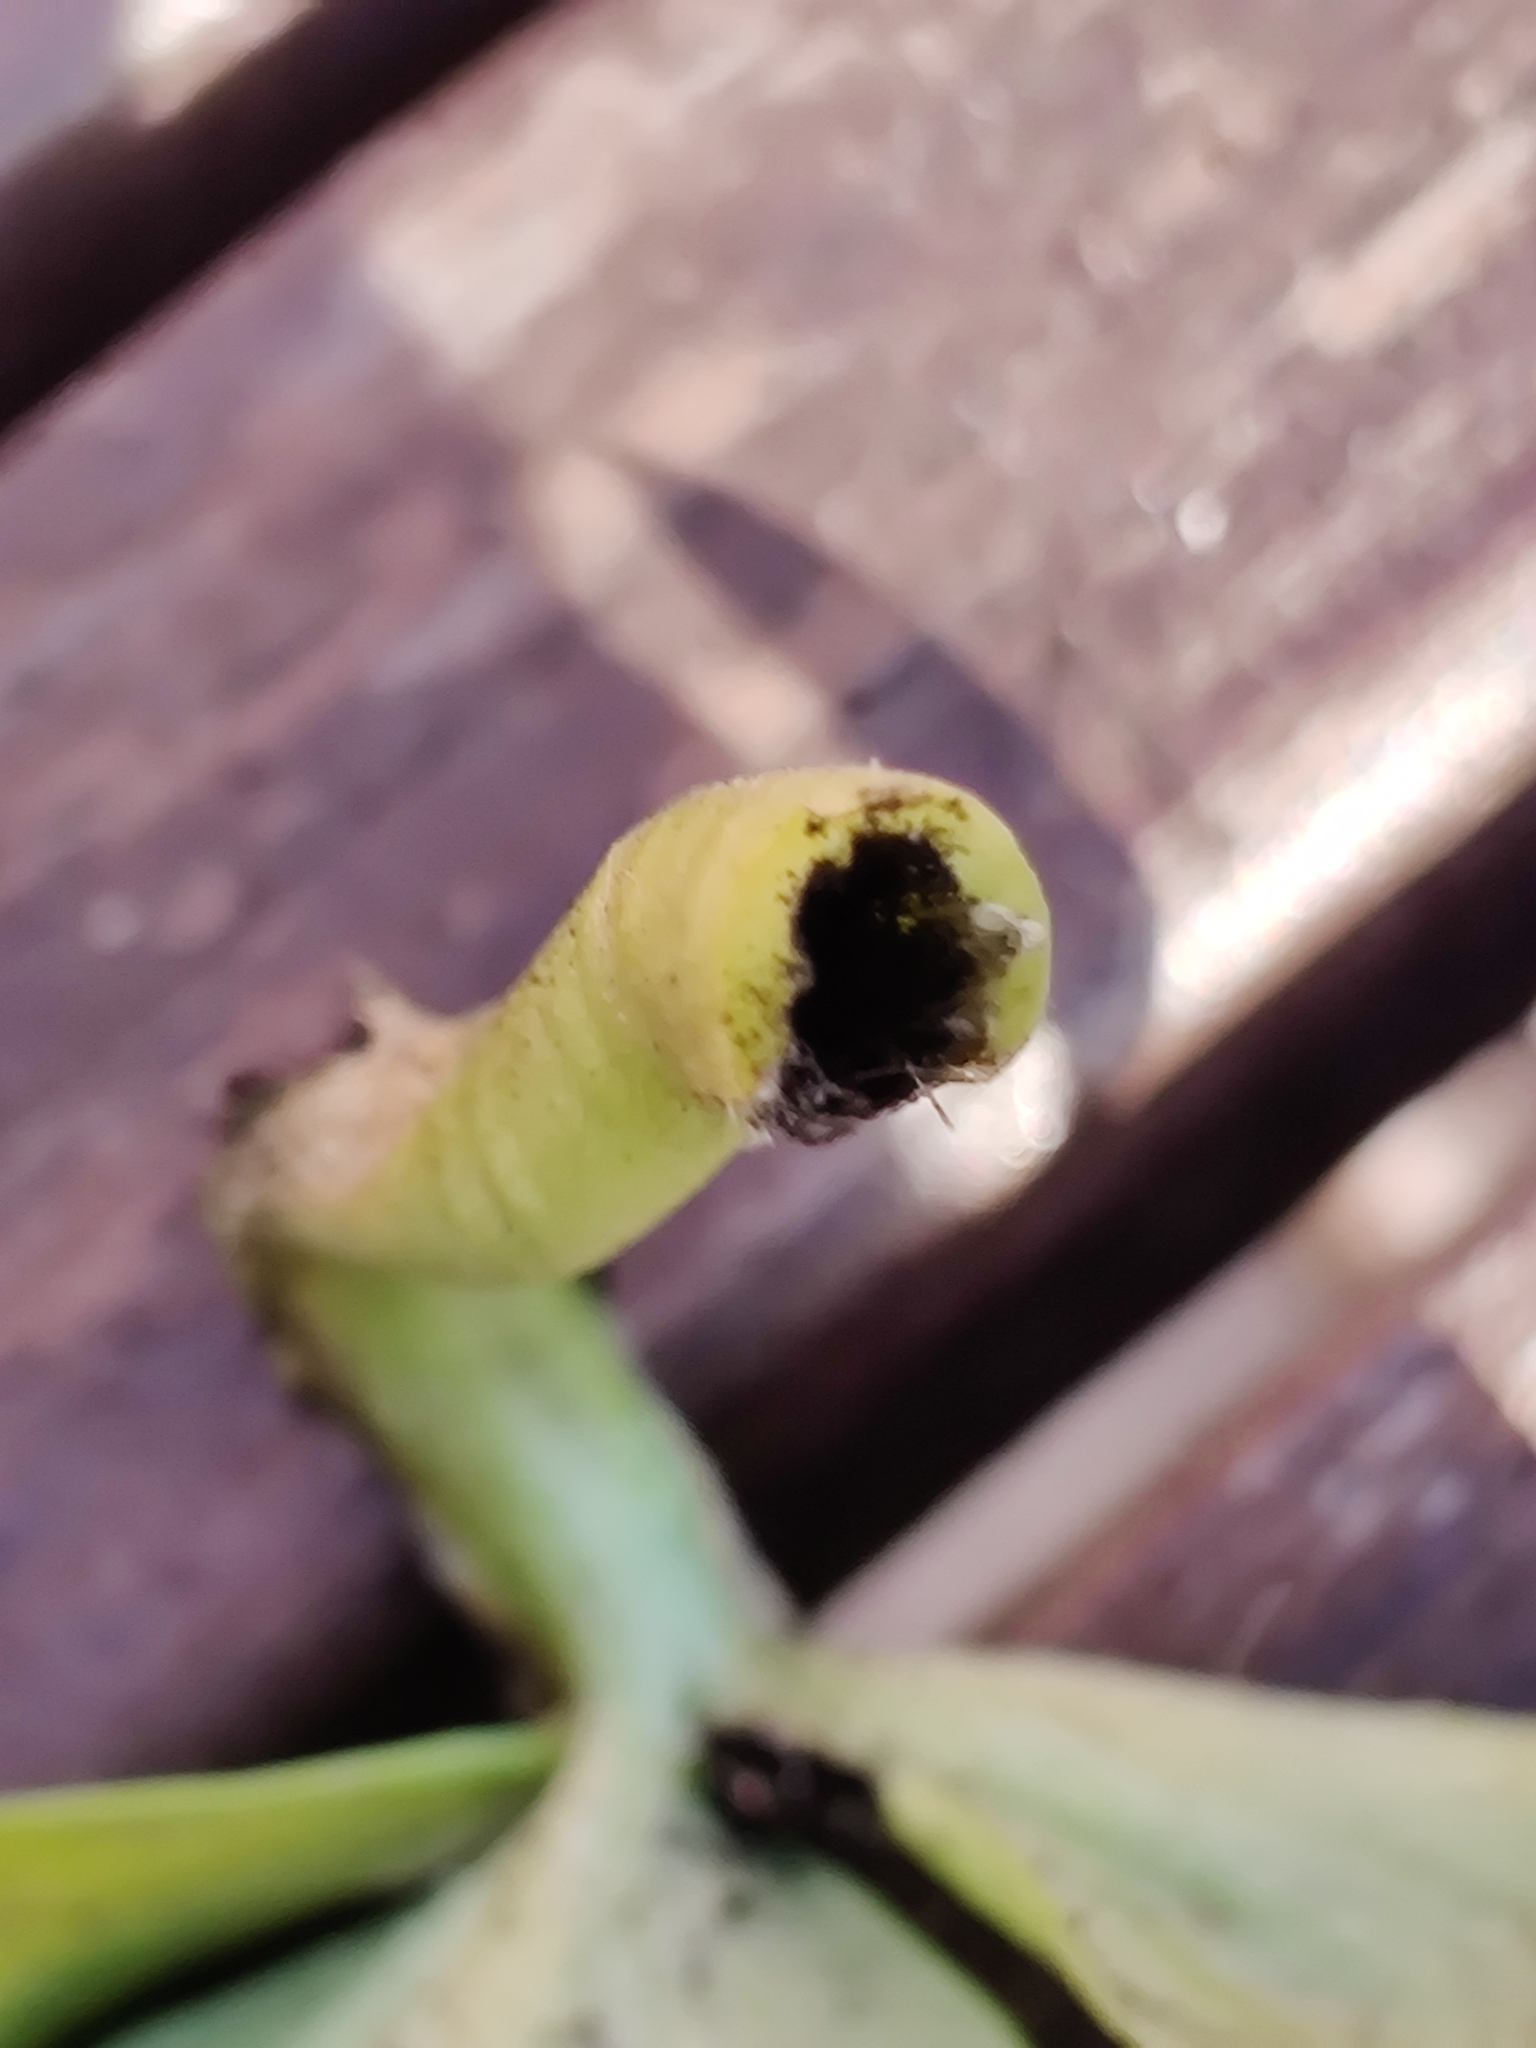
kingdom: Fungi
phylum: Basidiomycota
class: Ustilaginomycetes
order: Urocystidales
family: Urocystidaceae
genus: Urocystis
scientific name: Urocystis eranthidis
